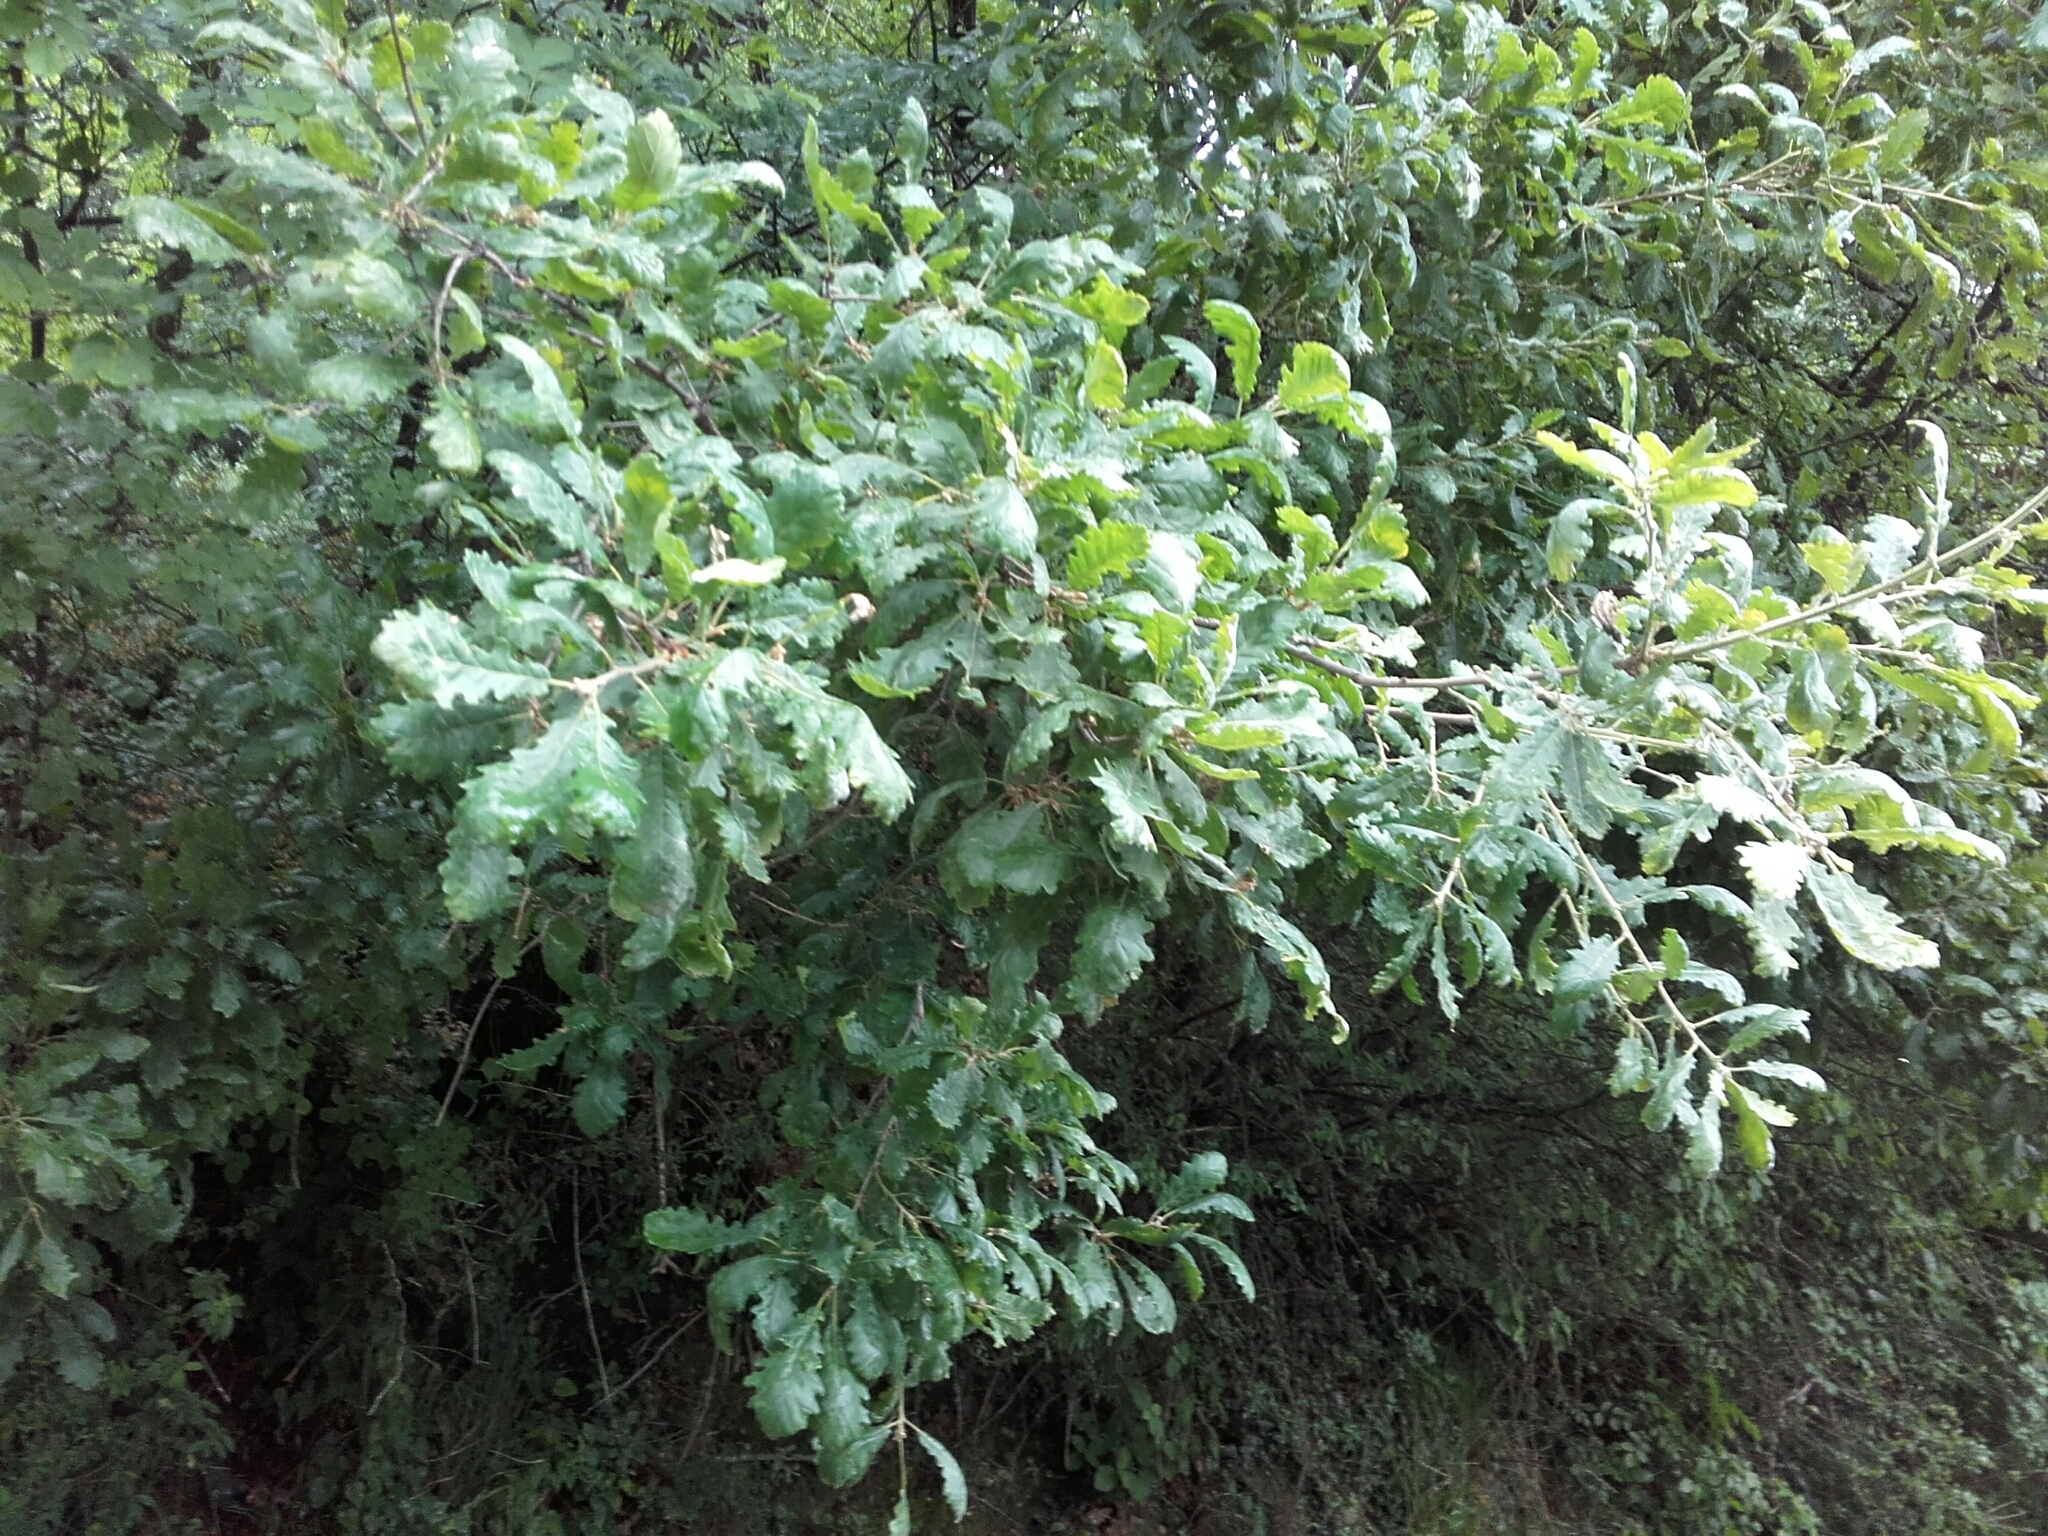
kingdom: Plantae
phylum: Tracheophyta
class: Magnoliopsida
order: Fagales
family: Fagaceae
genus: Quercus
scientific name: Quercus pubescens
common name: Downy oak
